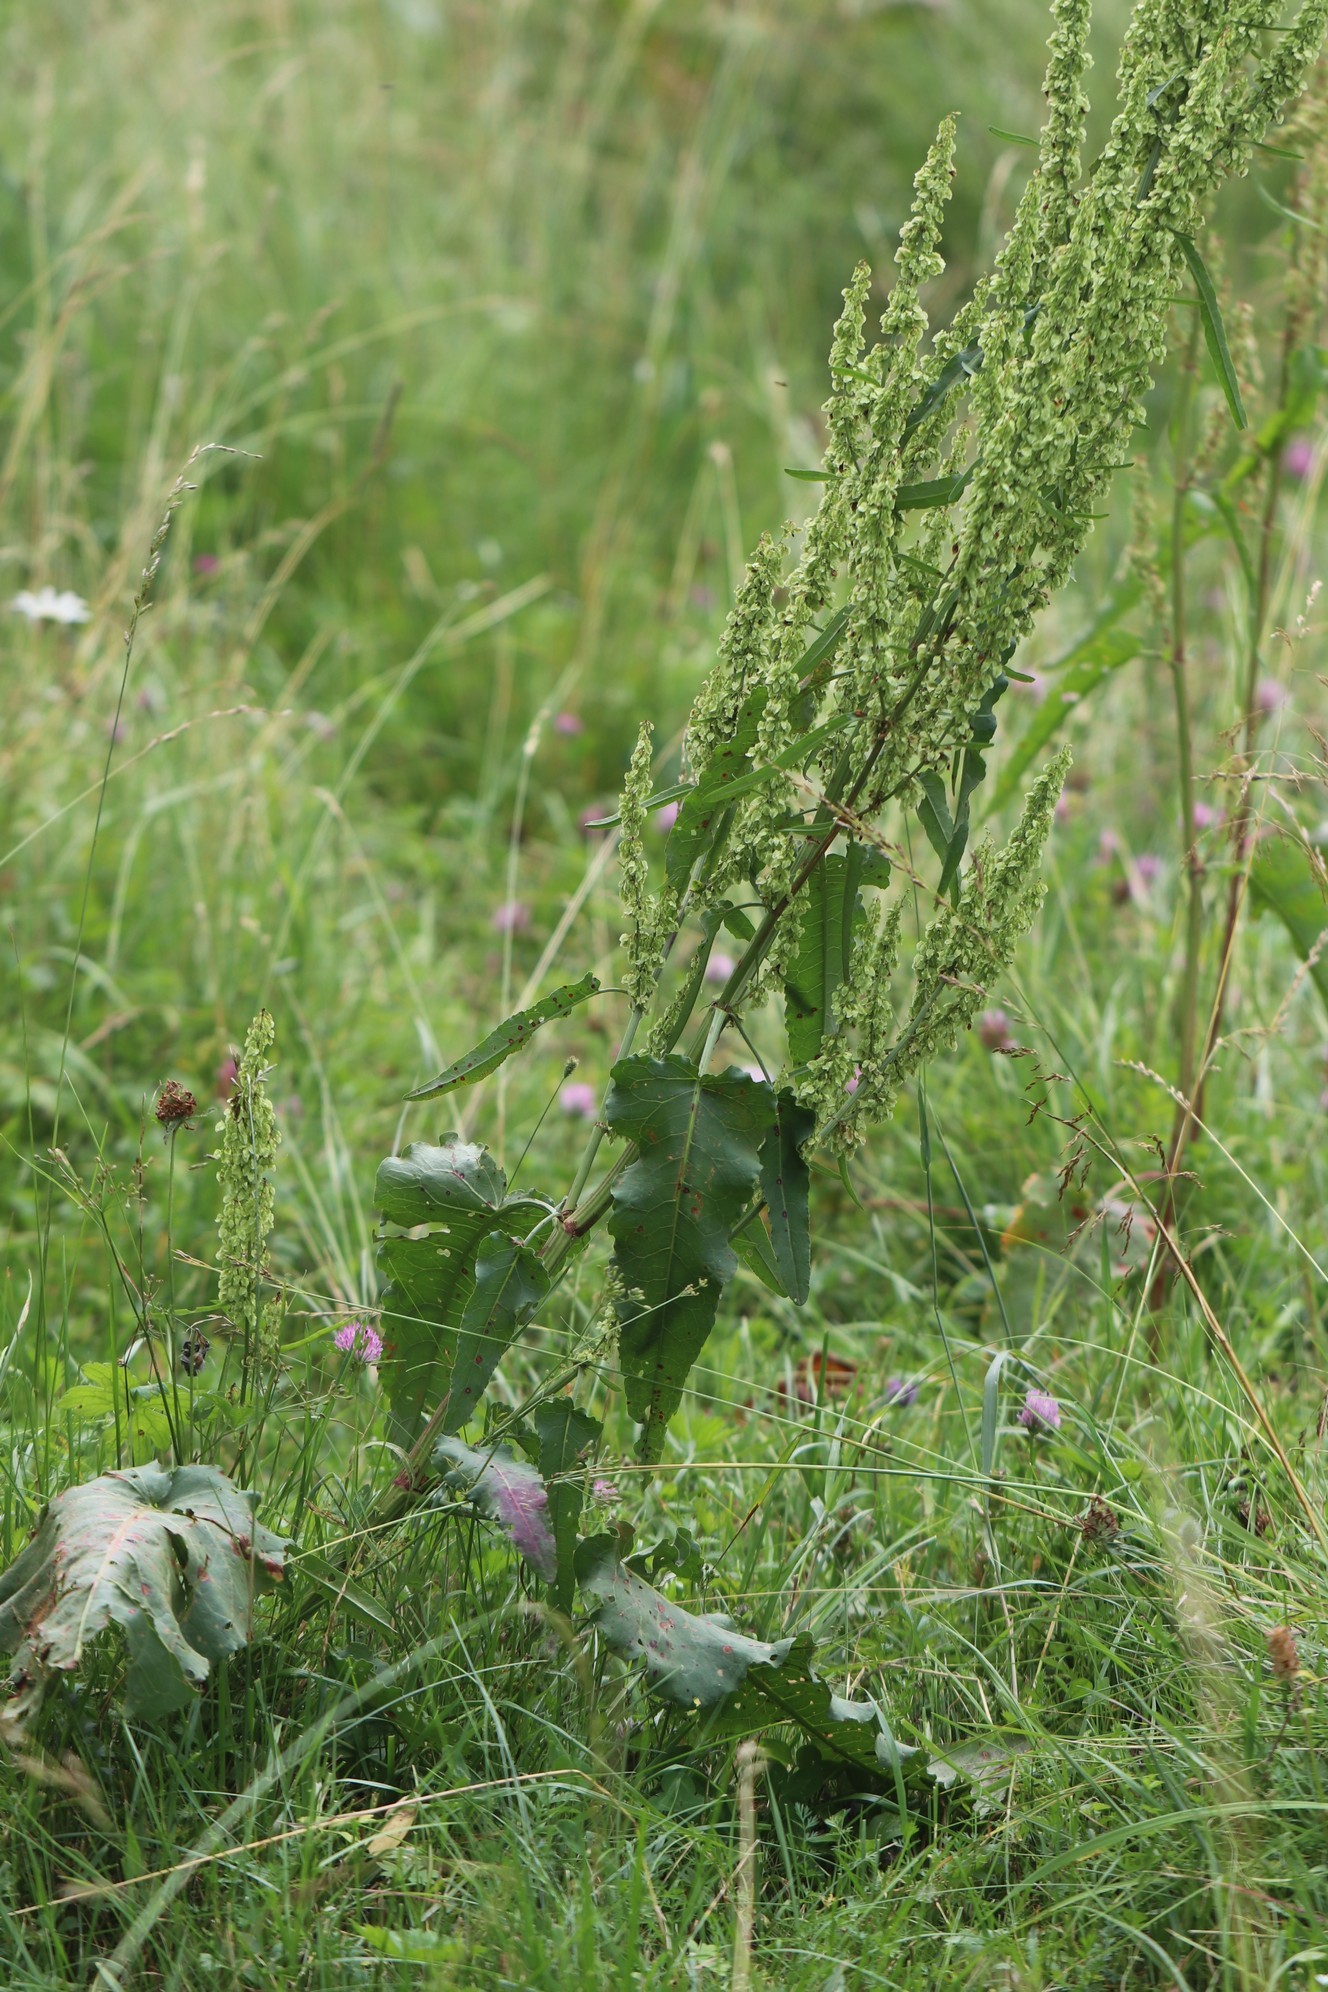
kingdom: Plantae
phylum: Tracheophyta
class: Magnoliopsida
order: Caryophyllales
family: Polygonaceae
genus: Rumex
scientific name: Rumex confertus
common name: Russian dock
